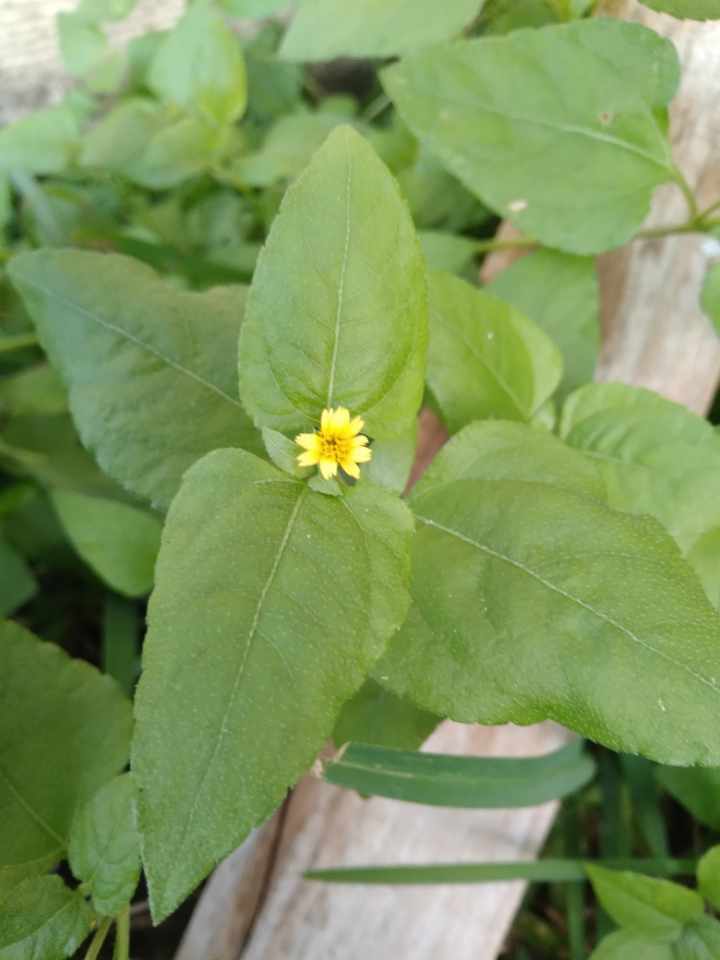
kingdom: Plantae
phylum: Tracheophyta
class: Magnoliopsida
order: Asterales
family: Asteraceae
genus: Calyptocarpus
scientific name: Calyptocarpus vialis
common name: Straggler daisy
